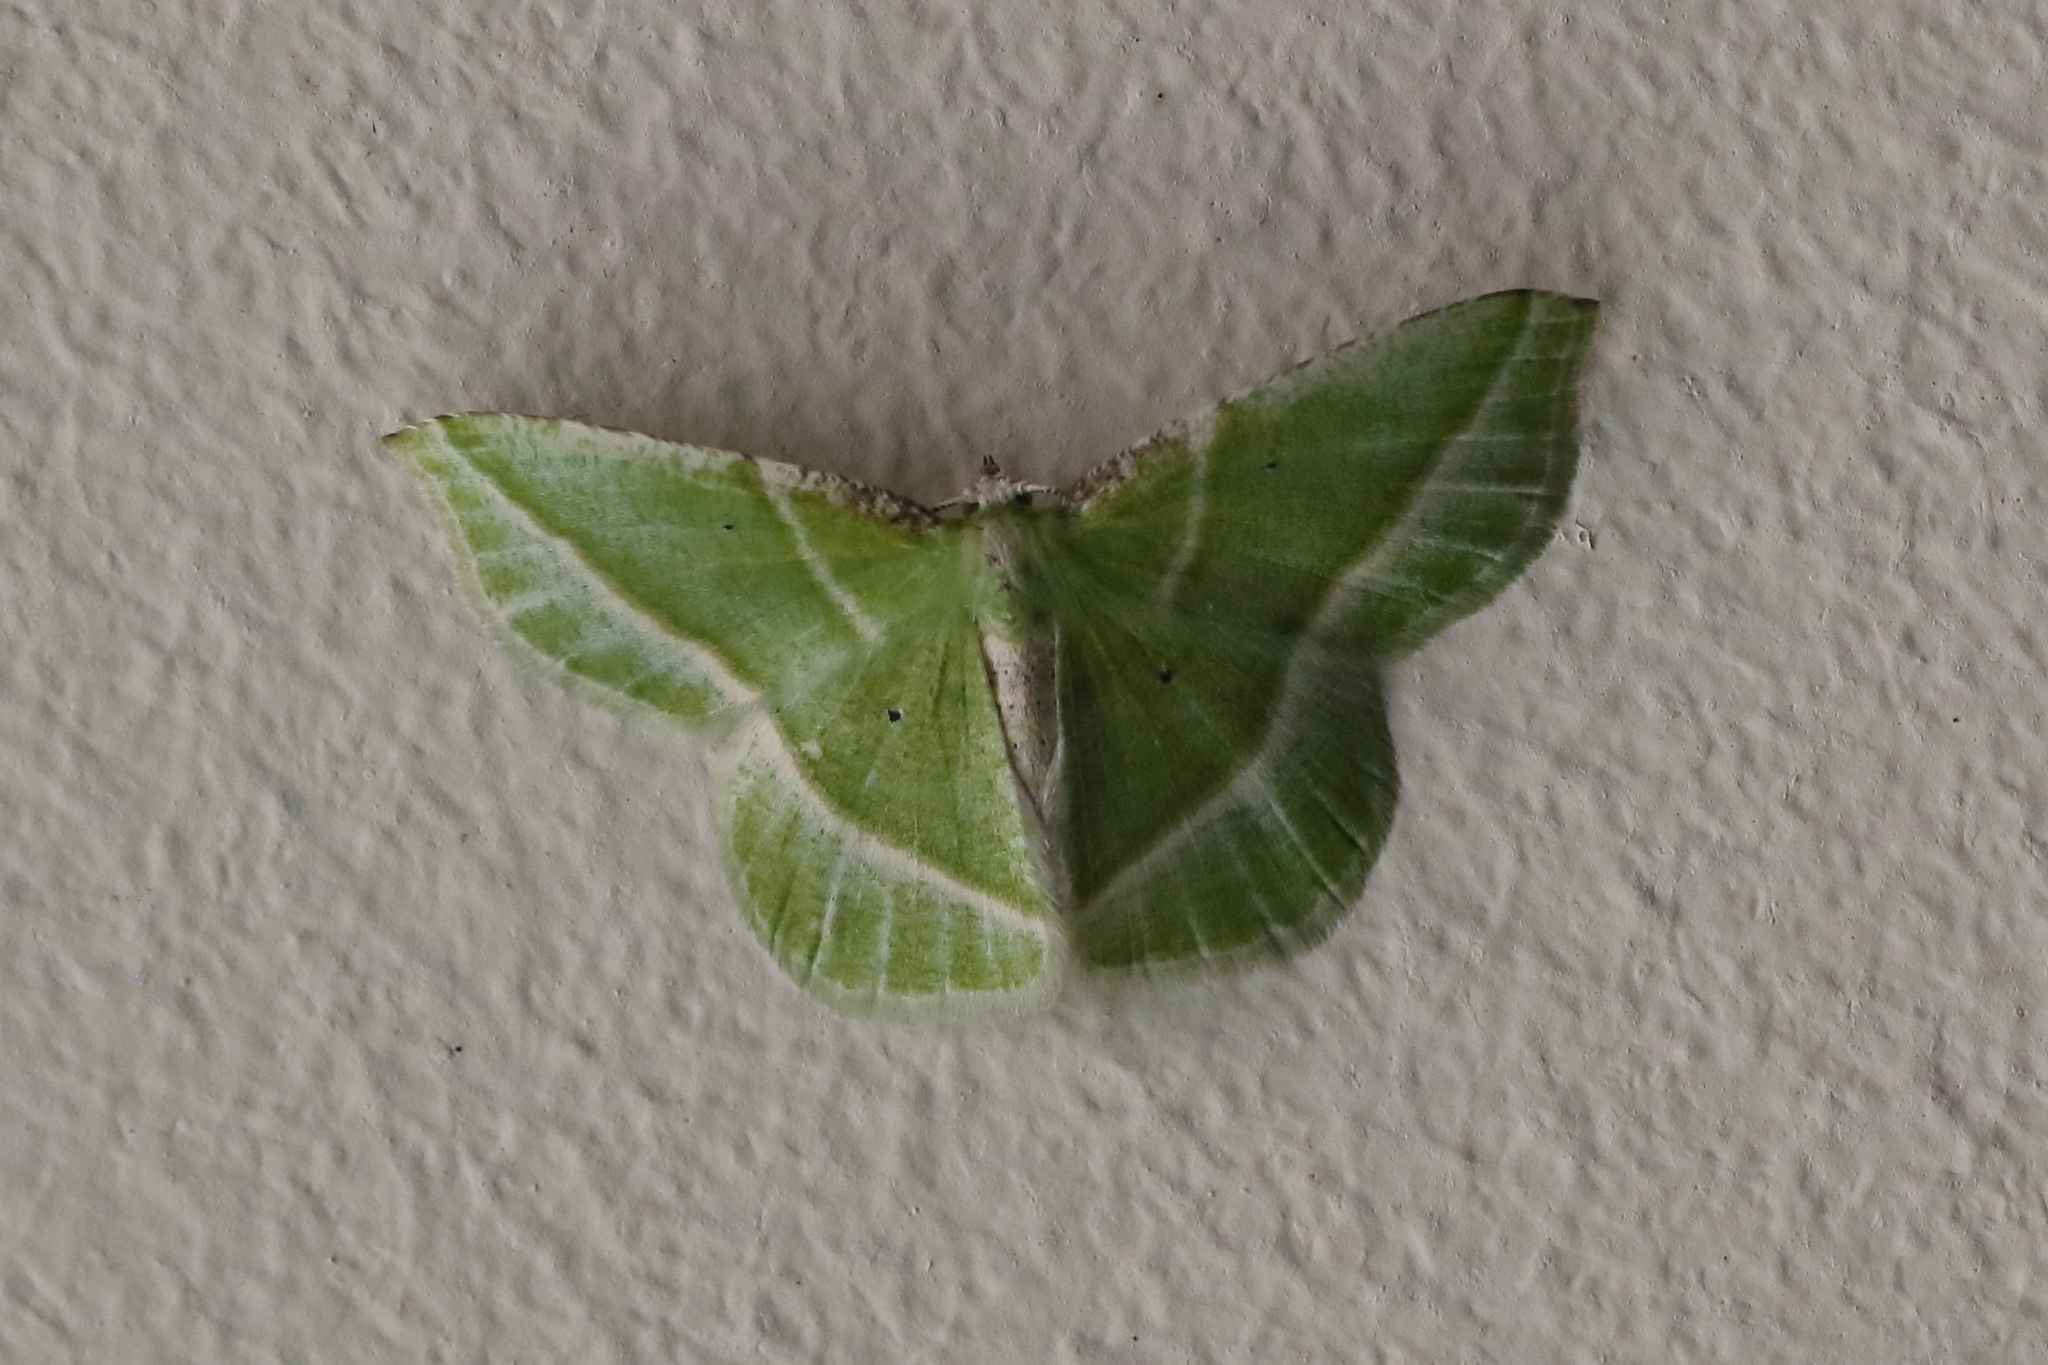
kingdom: Animalia
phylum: Arthropoda
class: Insecta
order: Lepidoptera
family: Geometridae
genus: Dichorda
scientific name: Dichorda iridaria
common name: Showy emerald
